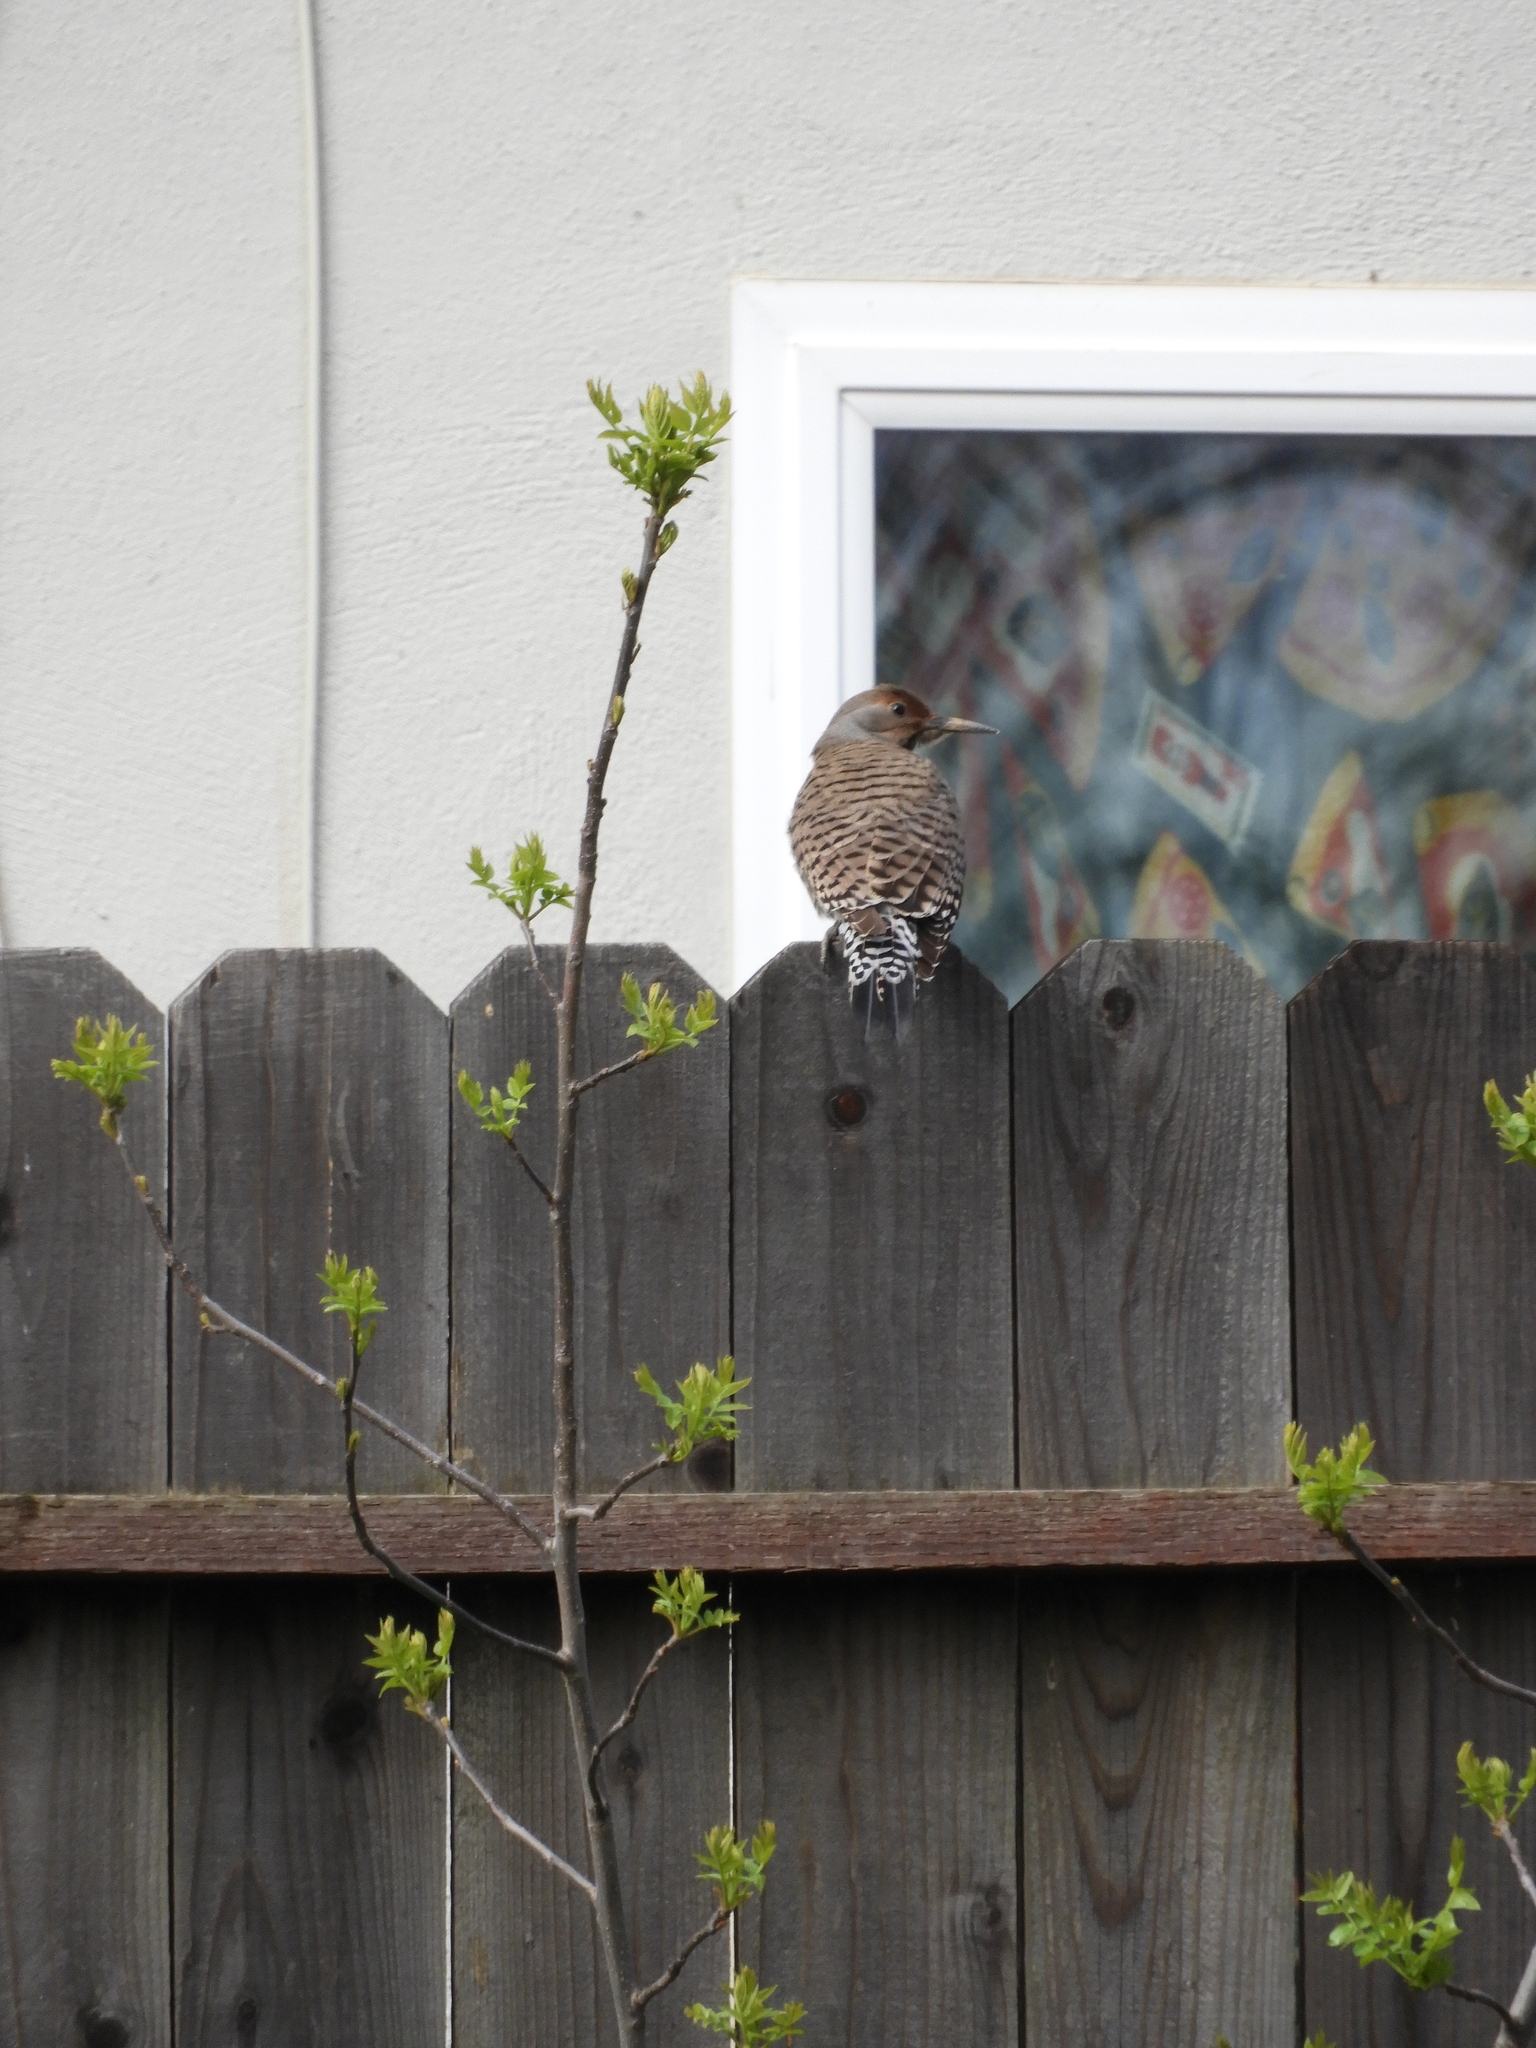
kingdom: Animalia
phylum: Chordata
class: Aves
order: Piciformes
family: Picidae
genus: Colaptes
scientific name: Colaptes auratus
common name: Northern flicker
